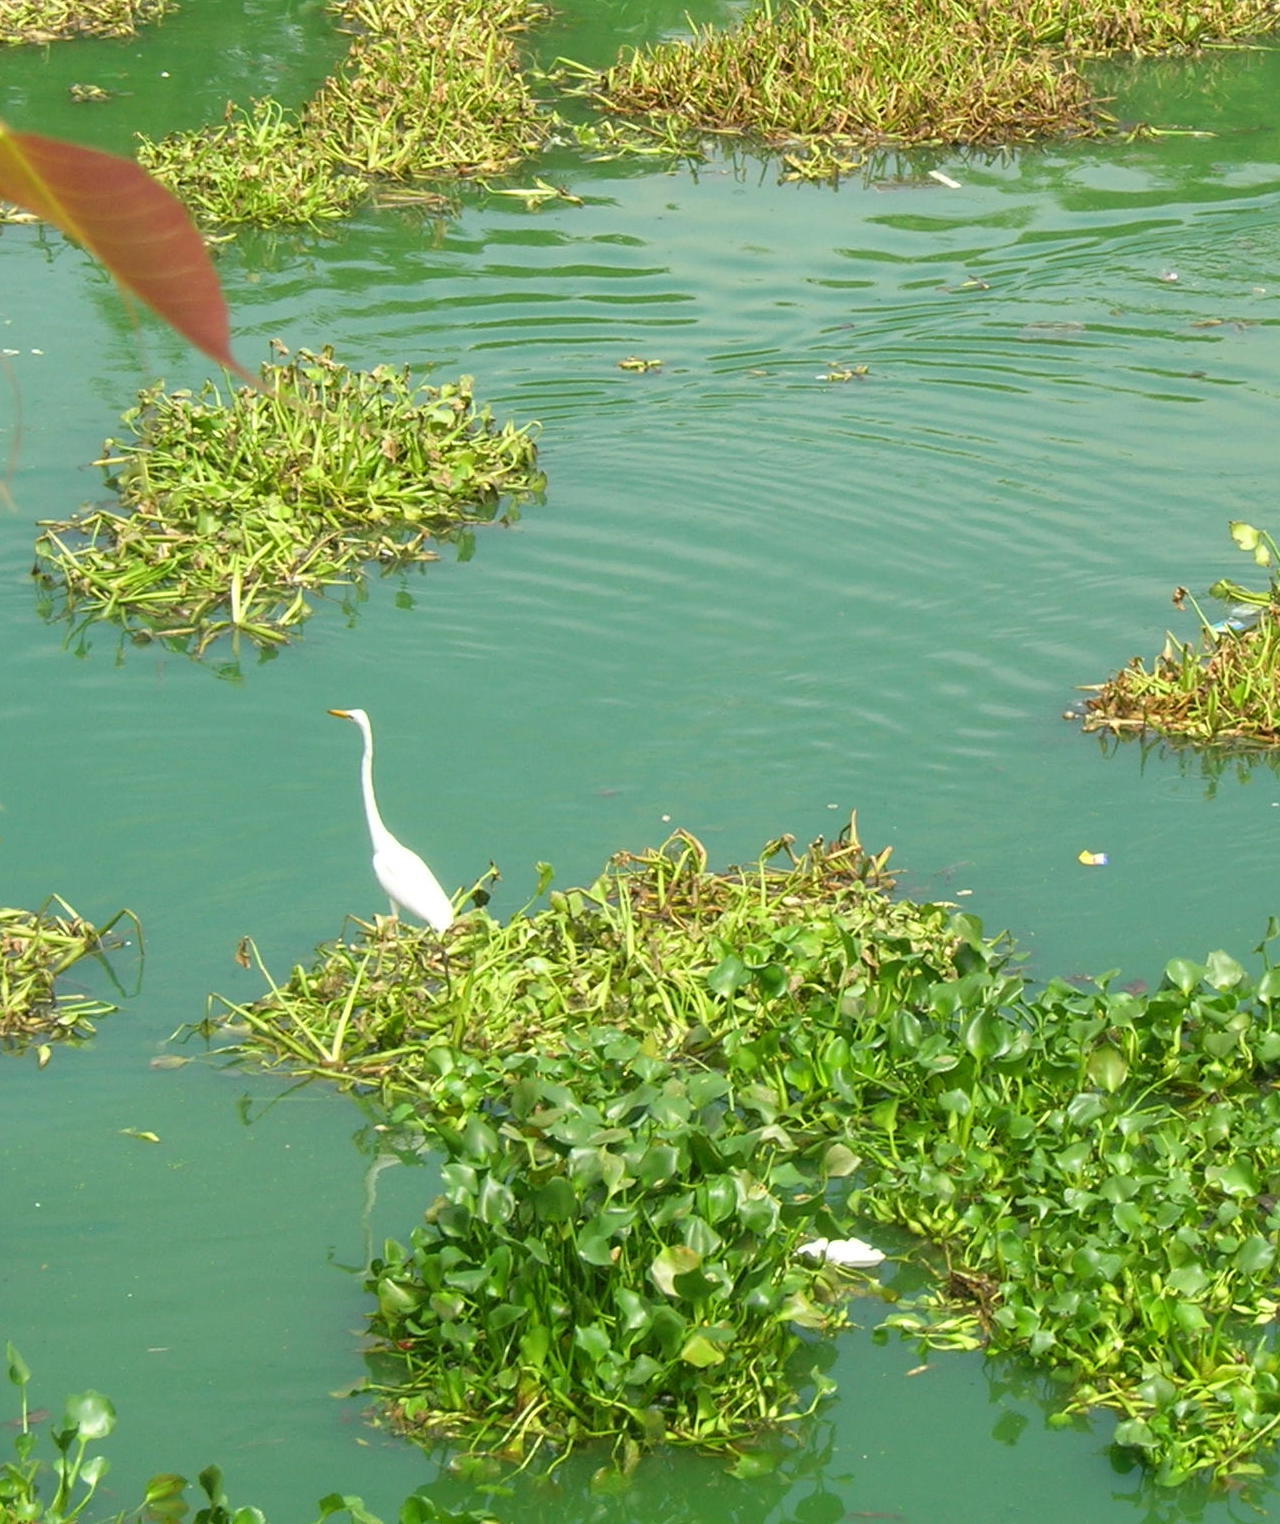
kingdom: Animalia
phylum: Chordata
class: Aves
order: Pelecaniformes
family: Ardeidae
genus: Ardea
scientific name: Ardea alba
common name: Great egret
